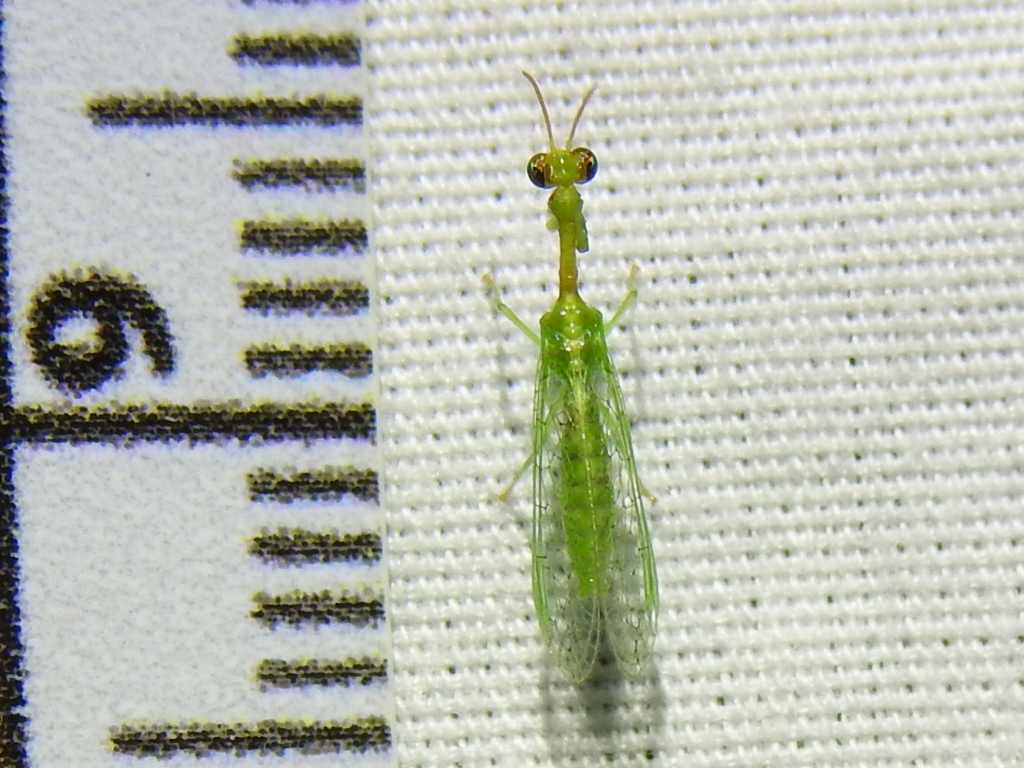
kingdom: Animalia
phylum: Arthropoda
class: Insecta
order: Neuroptera
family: Mantispidae
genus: Zeugomantispa
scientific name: Zeugomantispa minuta
